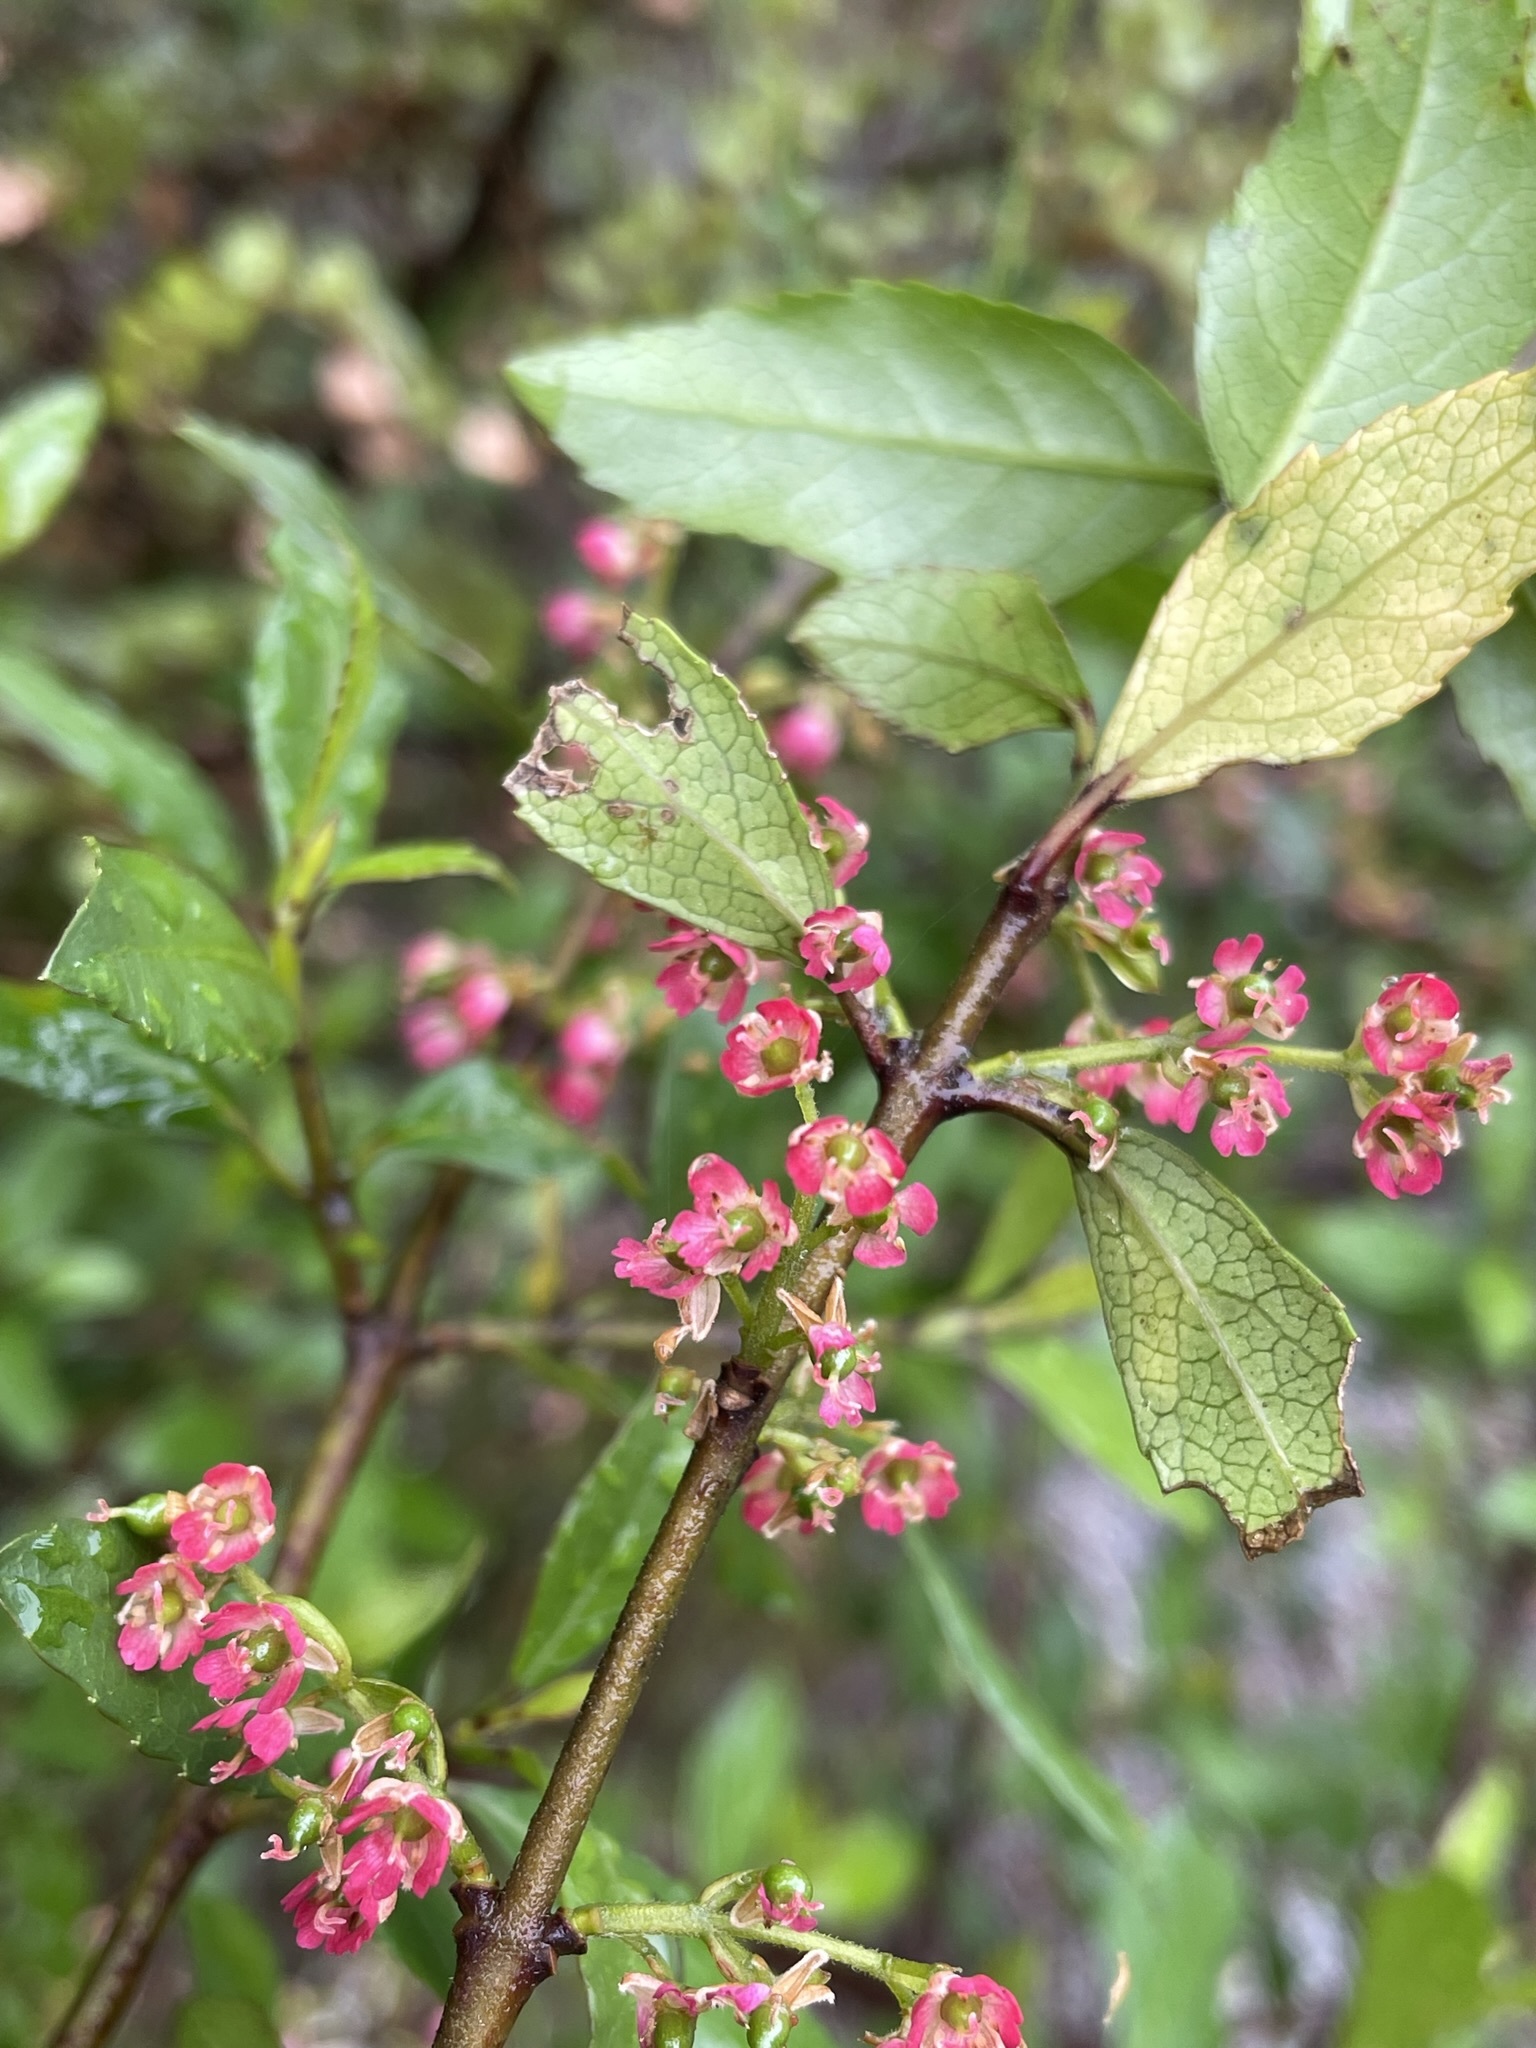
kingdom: Plantae
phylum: Tracheophyta
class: Magnoliopsida
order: Oxalidales
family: Elaeocarpaceae
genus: Aristotelia
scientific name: Aristotelia
